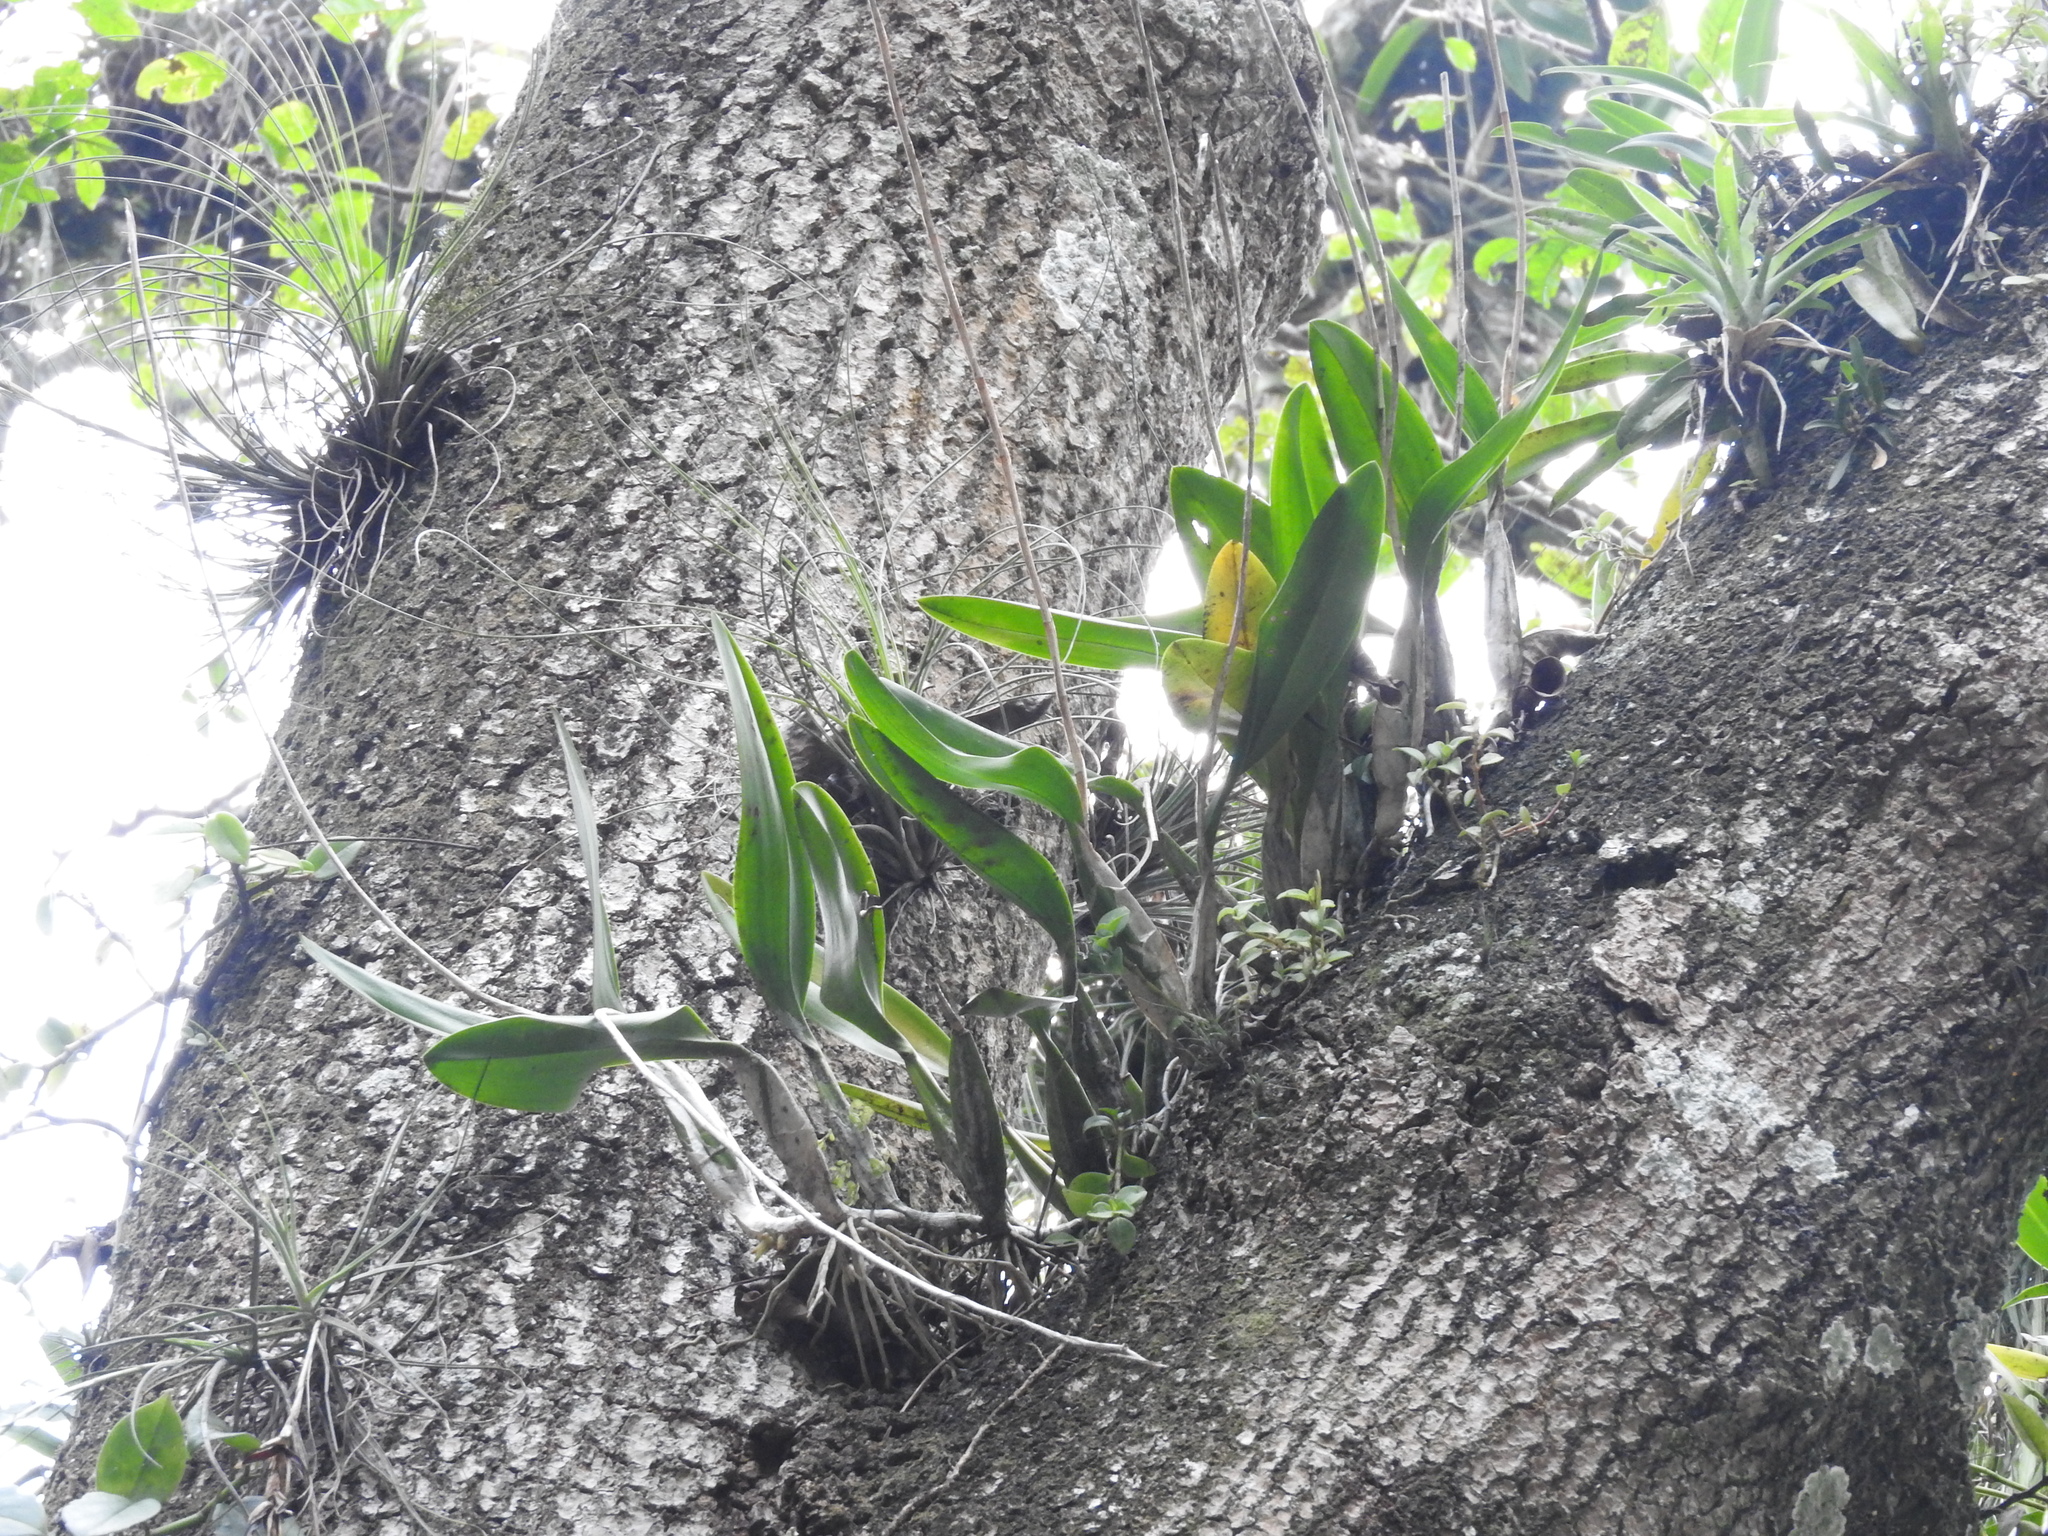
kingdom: Plantae
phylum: Tracheophyta
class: Liliopsida
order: Asparagales
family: Orchidaceae
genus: Laelia
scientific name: Laelia anceps
